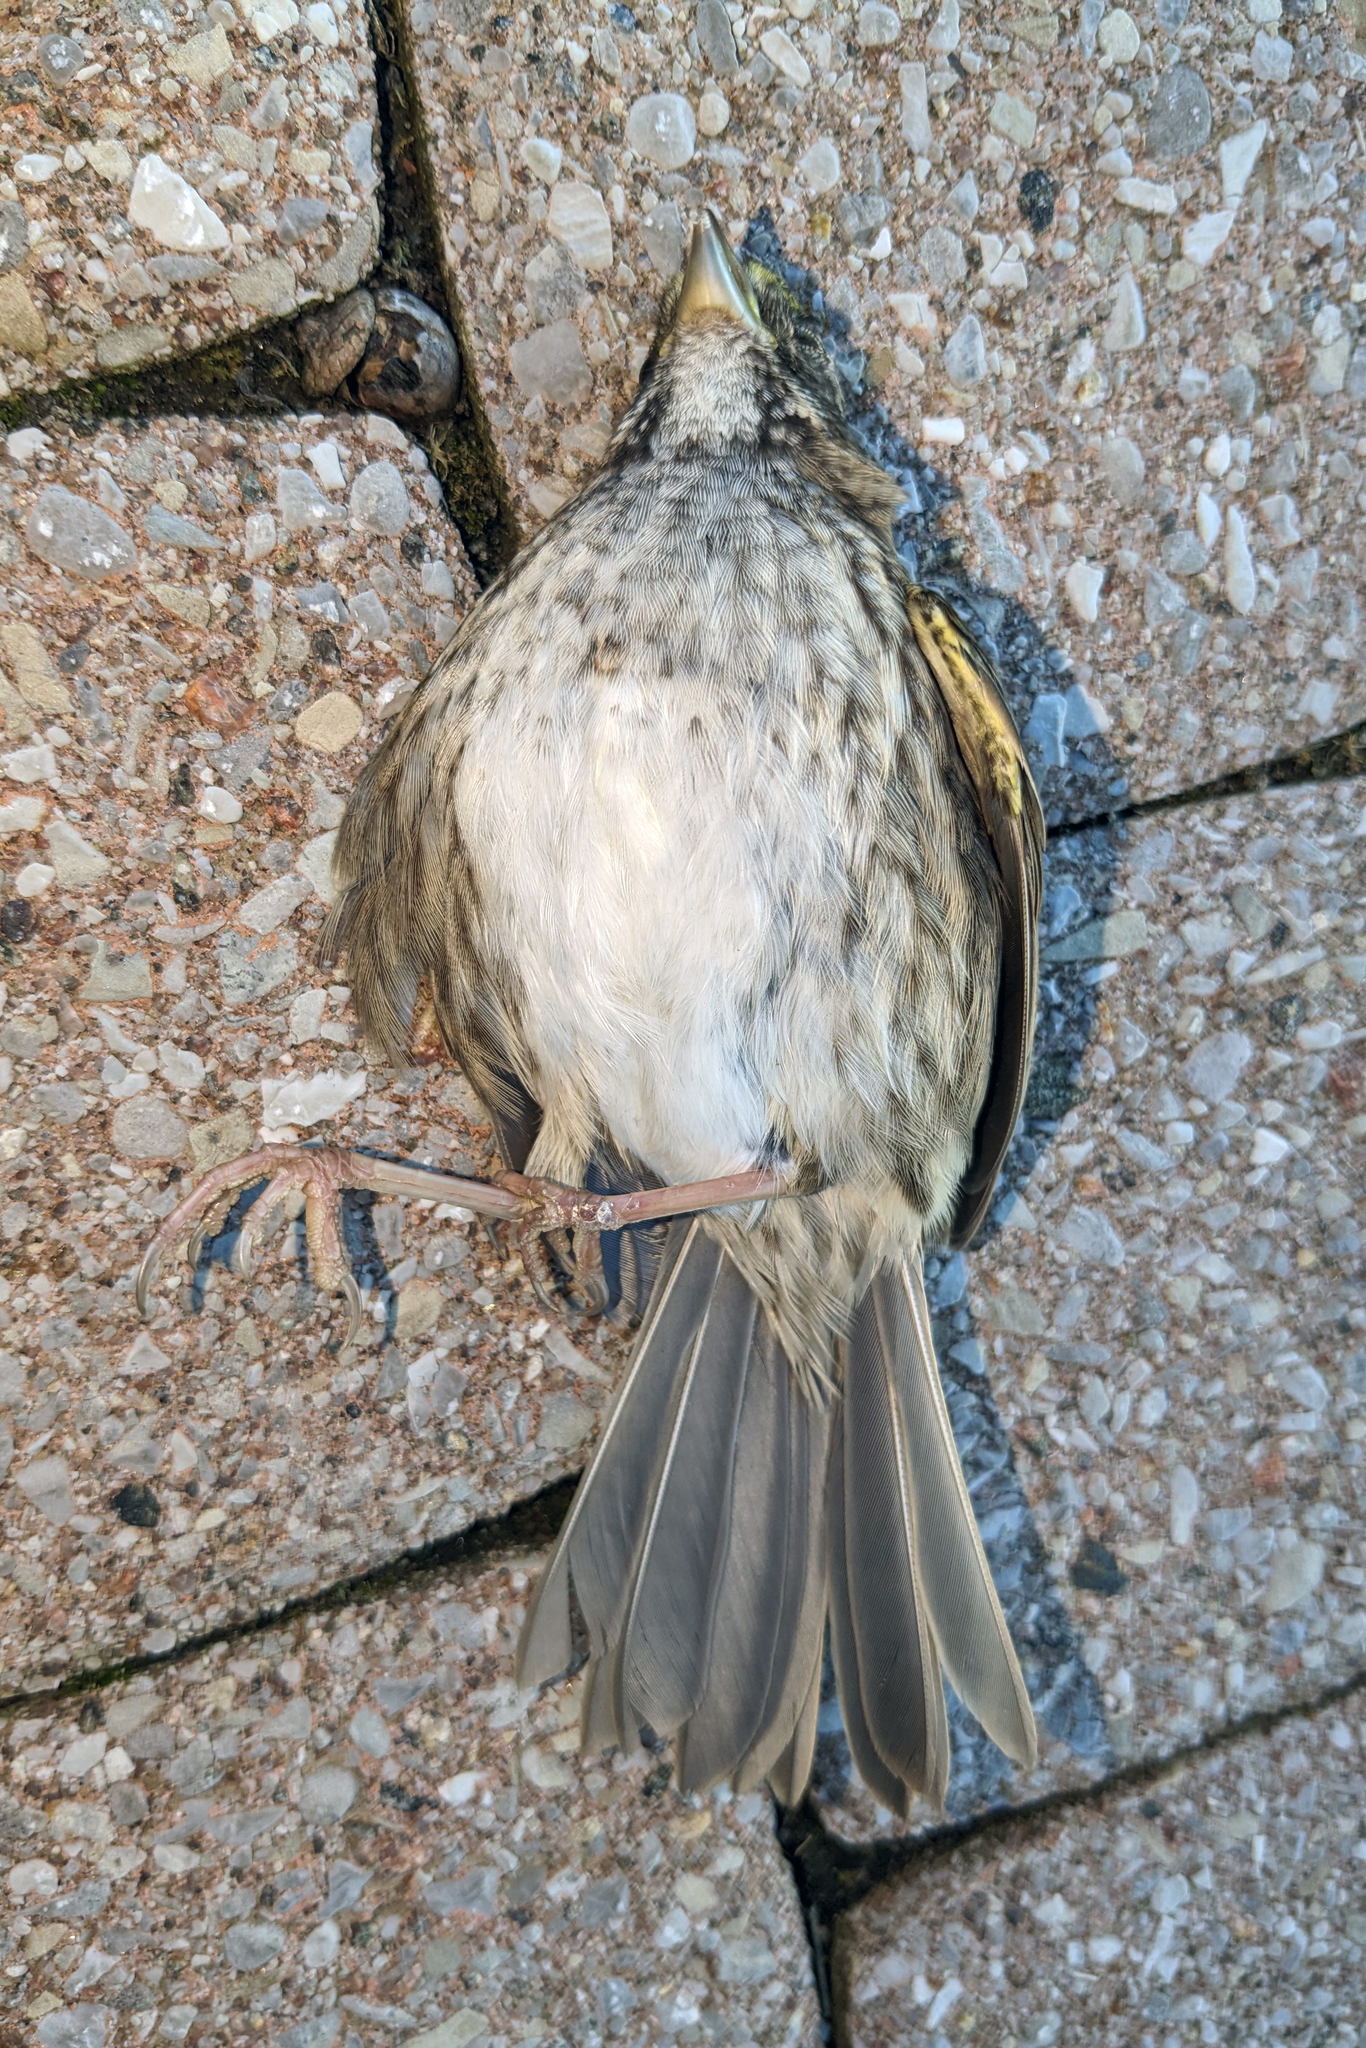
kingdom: Animalia
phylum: Chordata
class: Aves
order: Passeriformes
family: Passerellidae
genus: Zonotrichia
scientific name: Zonotrichia albicollis
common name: White-throated sparrow
